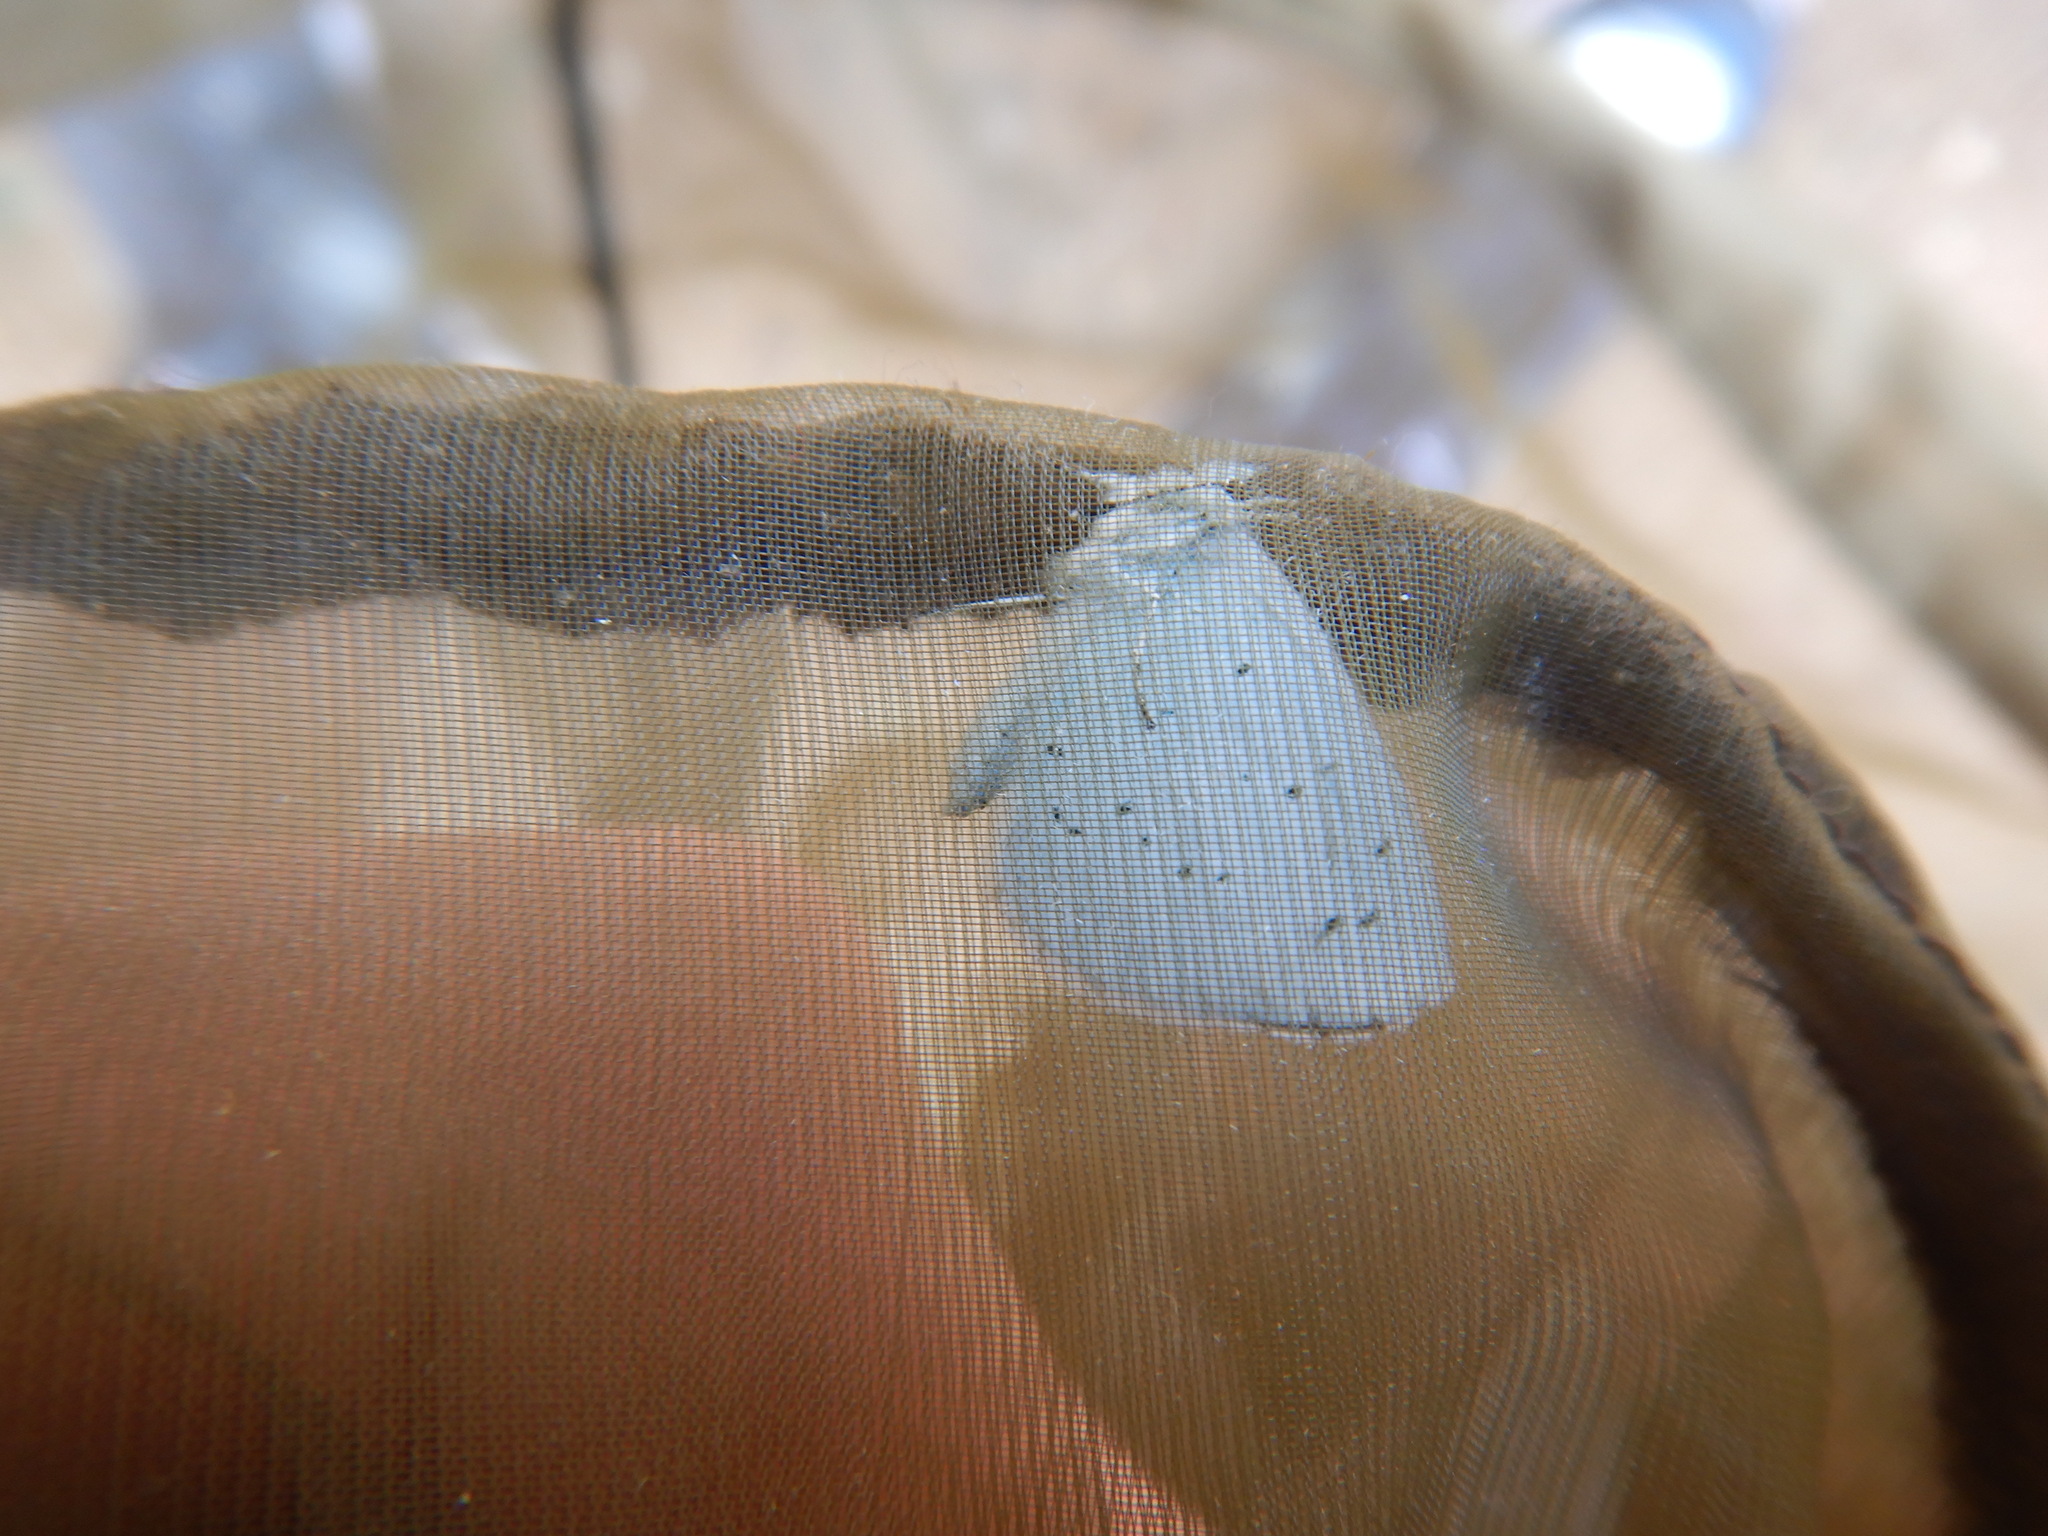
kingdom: Animalia
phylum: Arthropoda
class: Insecta
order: Lepidoptera
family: Lycaenidae
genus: Celastrina
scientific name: Celastrina argiolus
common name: Holly blue
